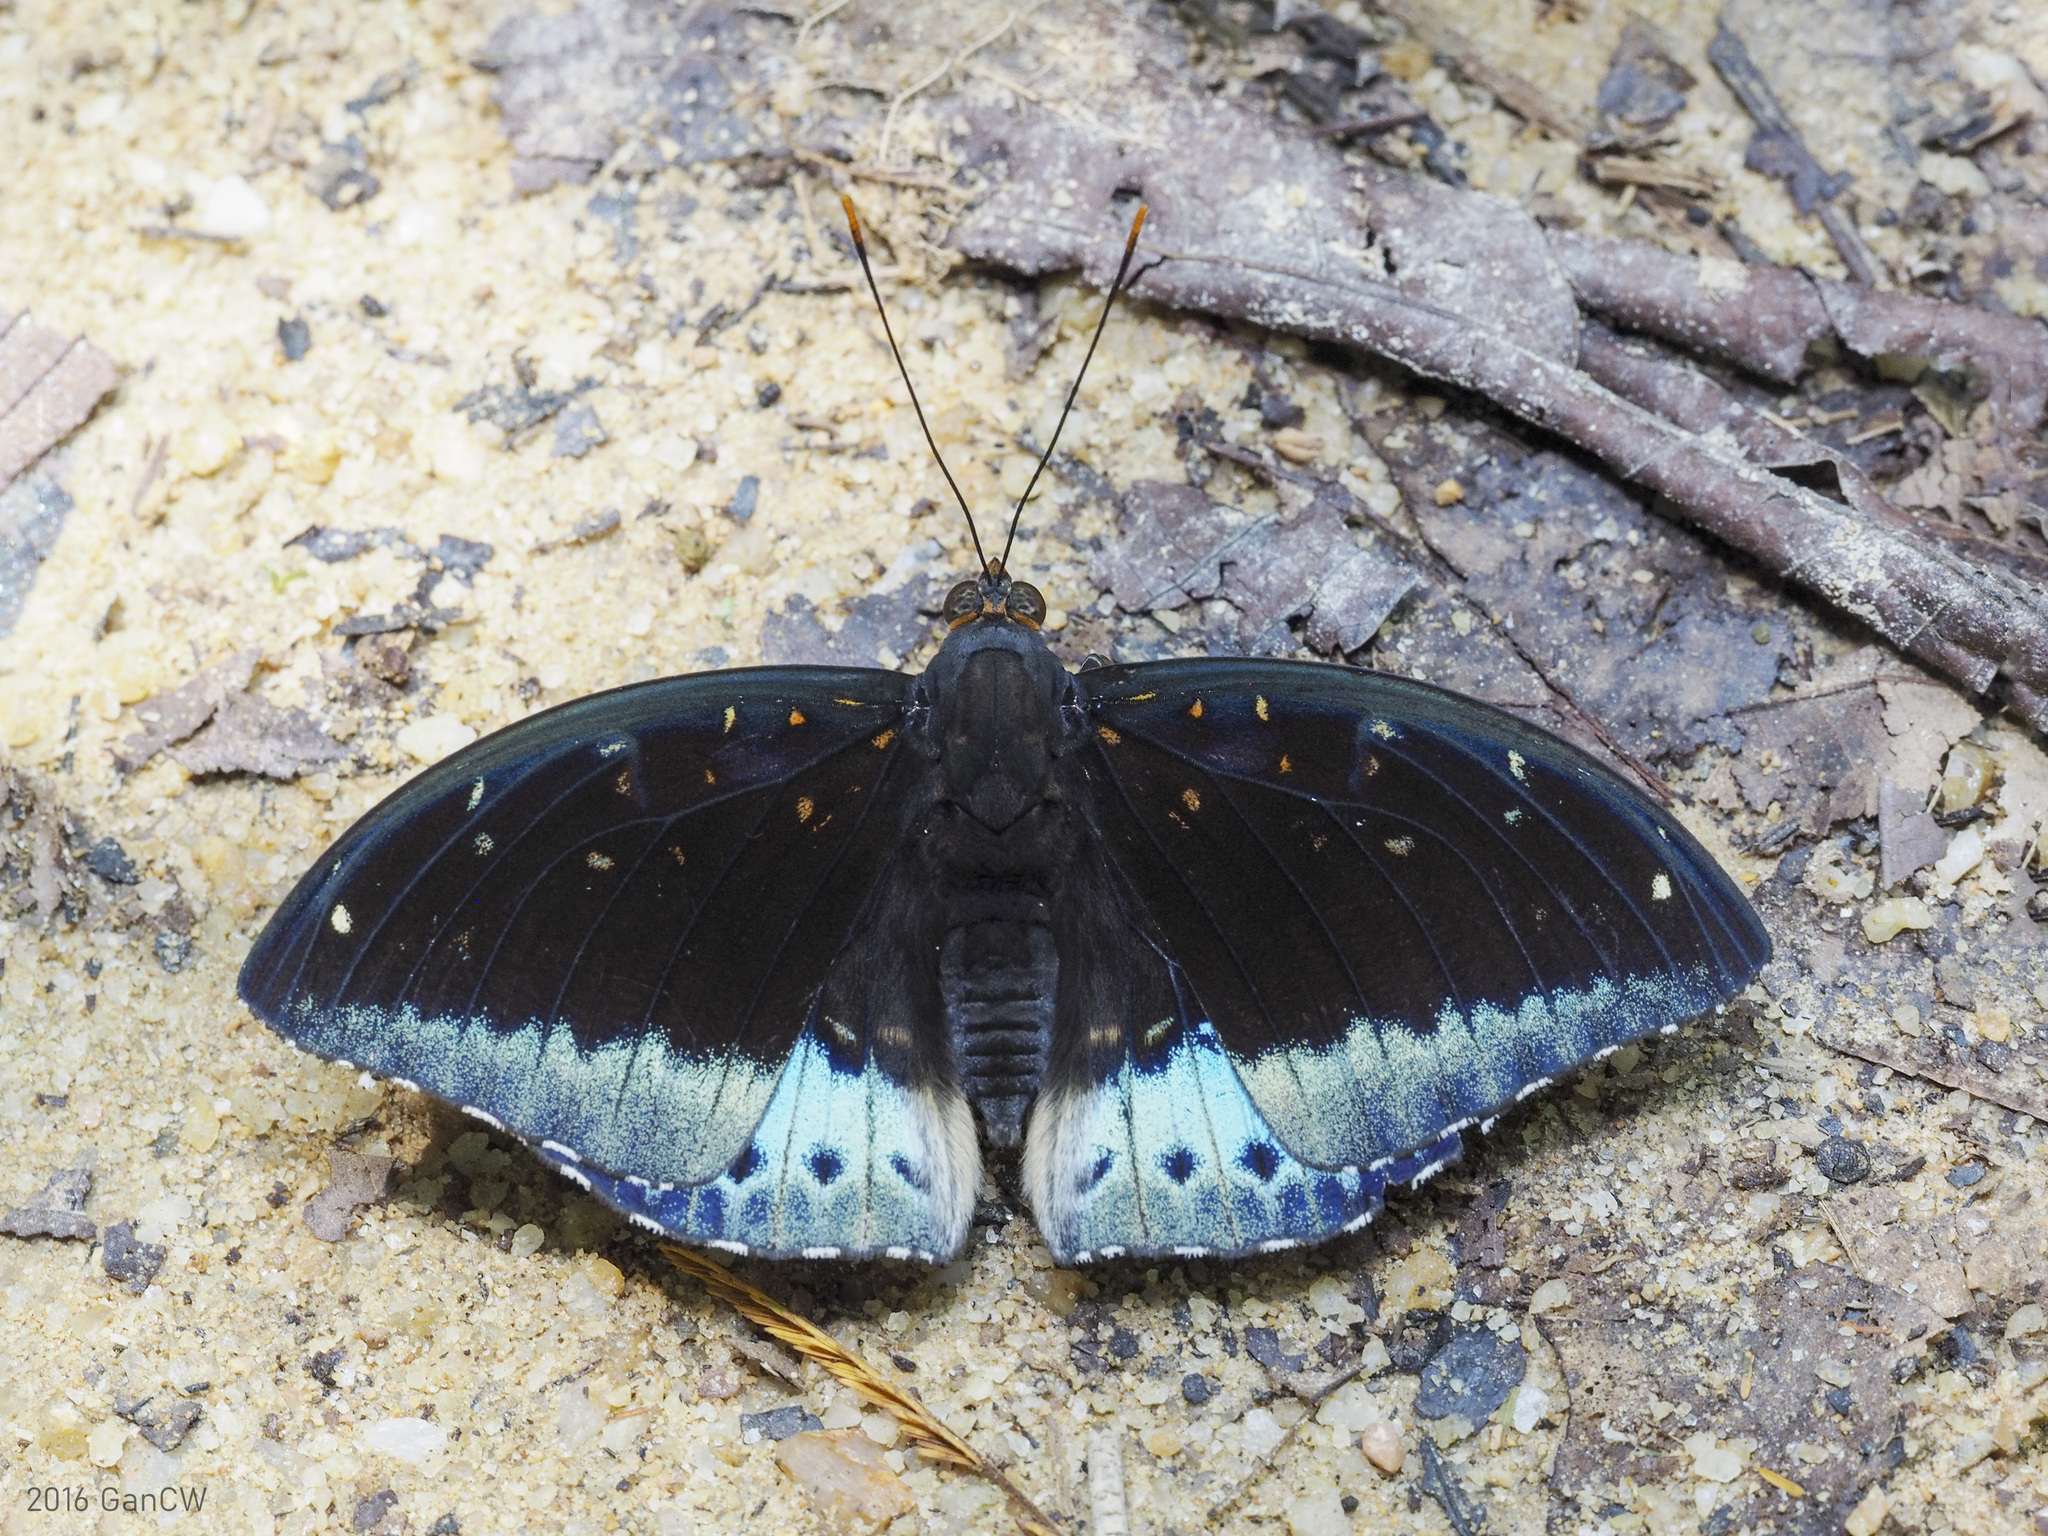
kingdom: Animalia
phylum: Arthropoda
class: Insecta
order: Lepidoptera
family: Nymphalidae
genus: Lexias
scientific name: Lexias pardalis
